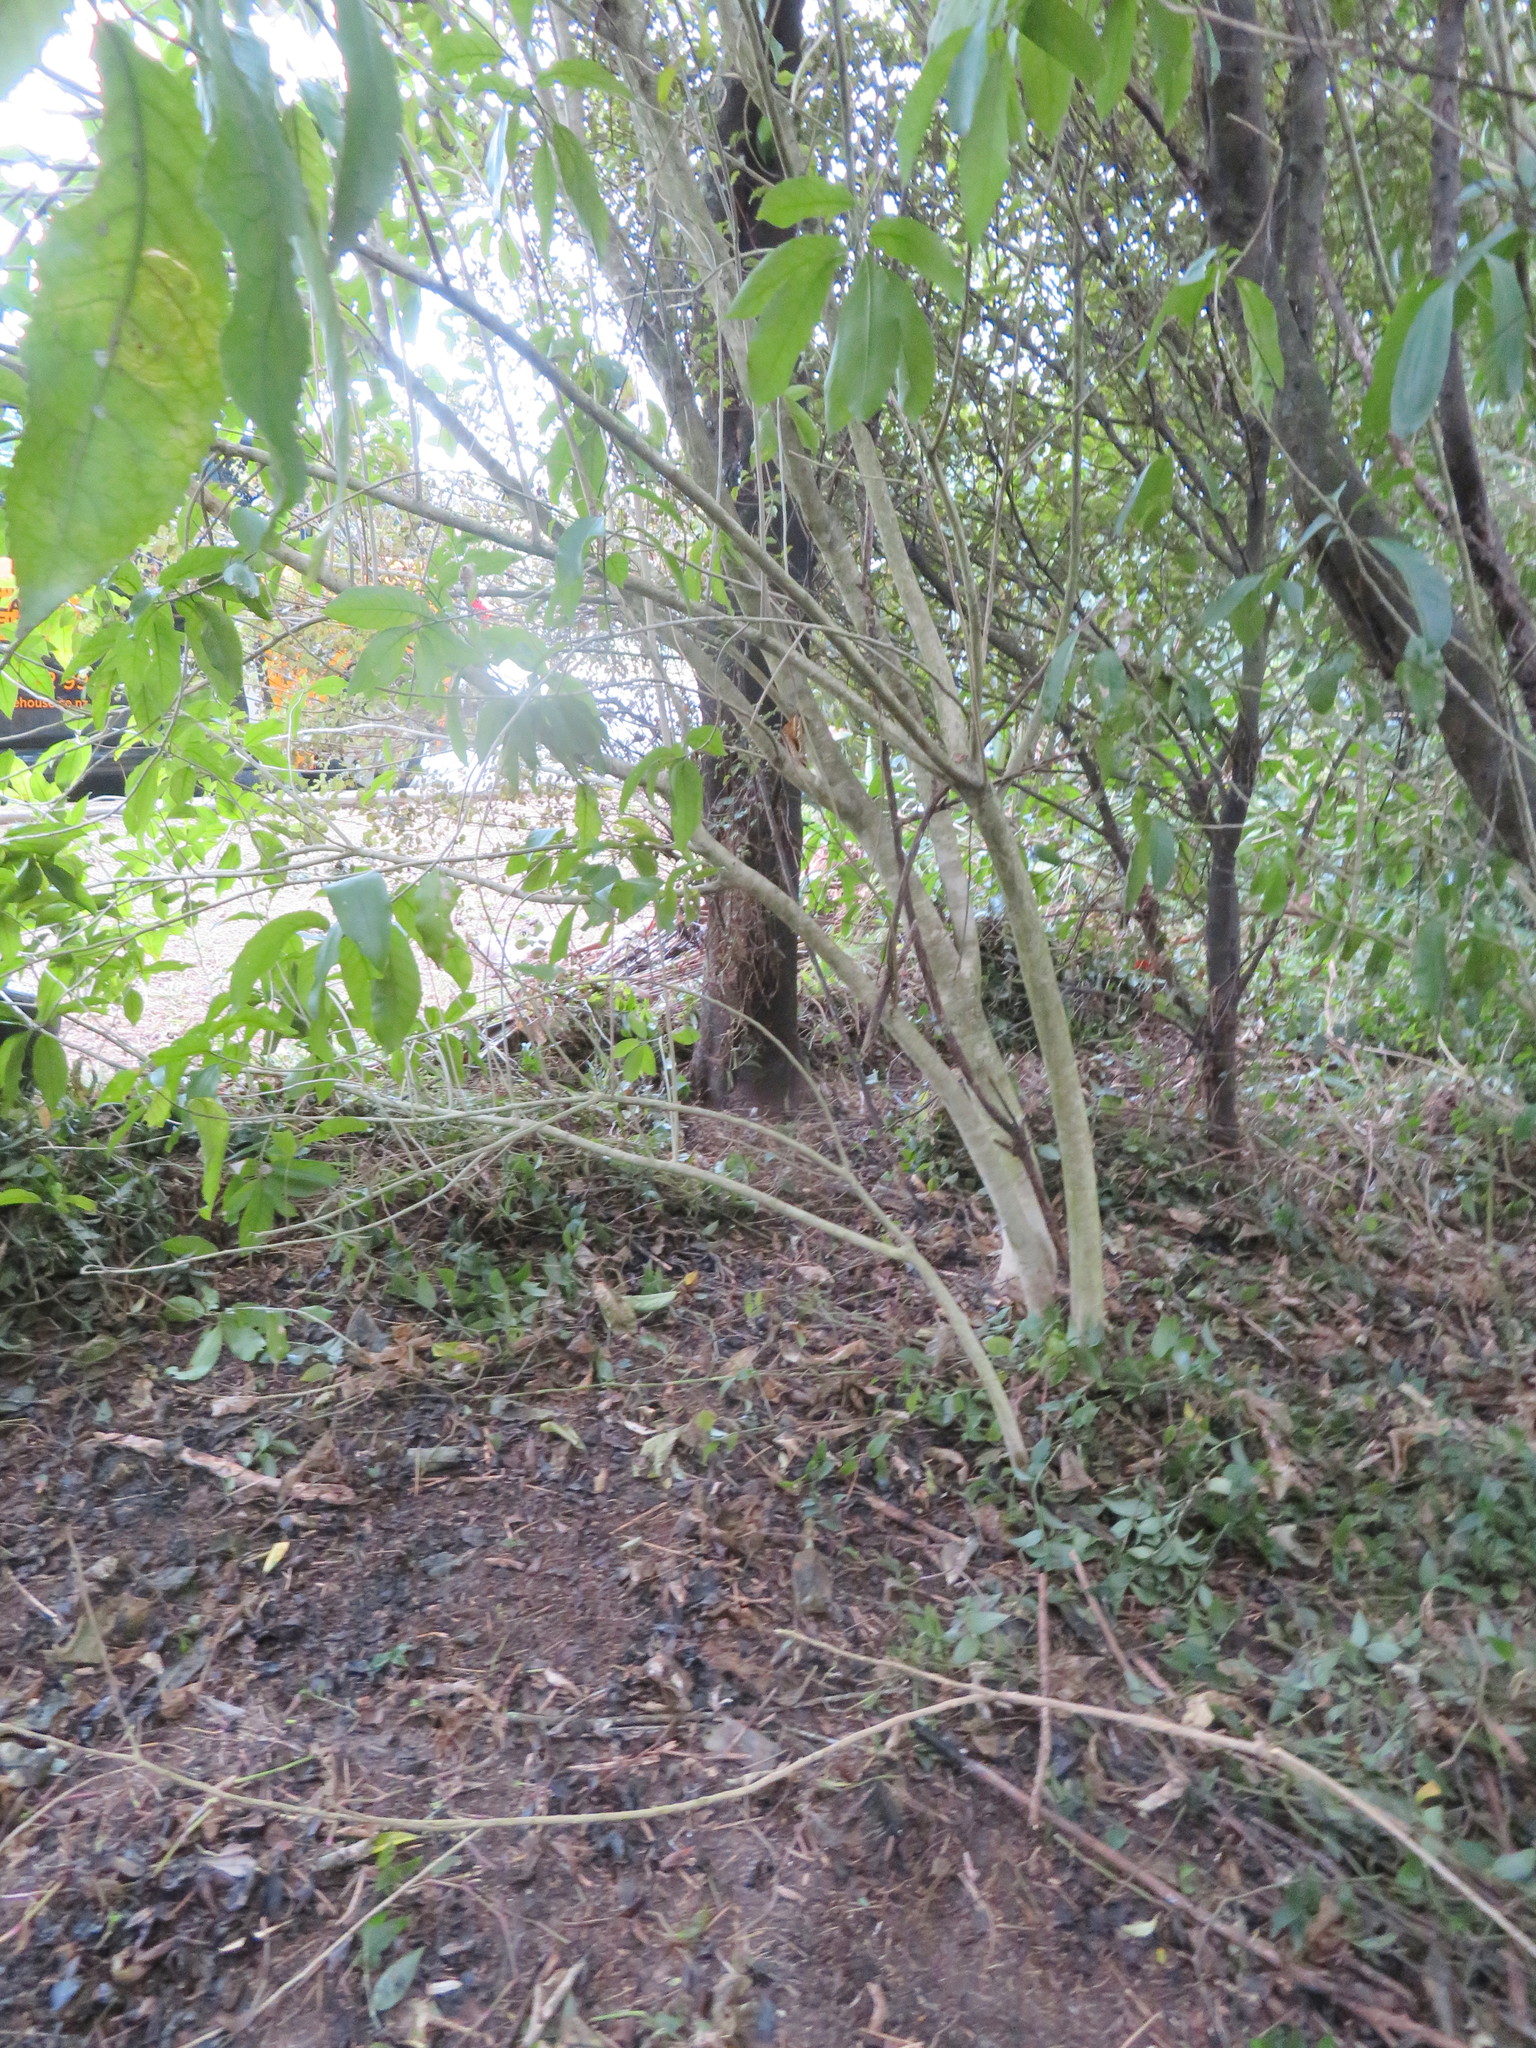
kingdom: Plantae
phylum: Tracheophyta
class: Magnoliopsida
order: Malpighiales
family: Violaceae
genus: Melicytus
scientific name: Melicytus ramiflorus
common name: Mahoe
